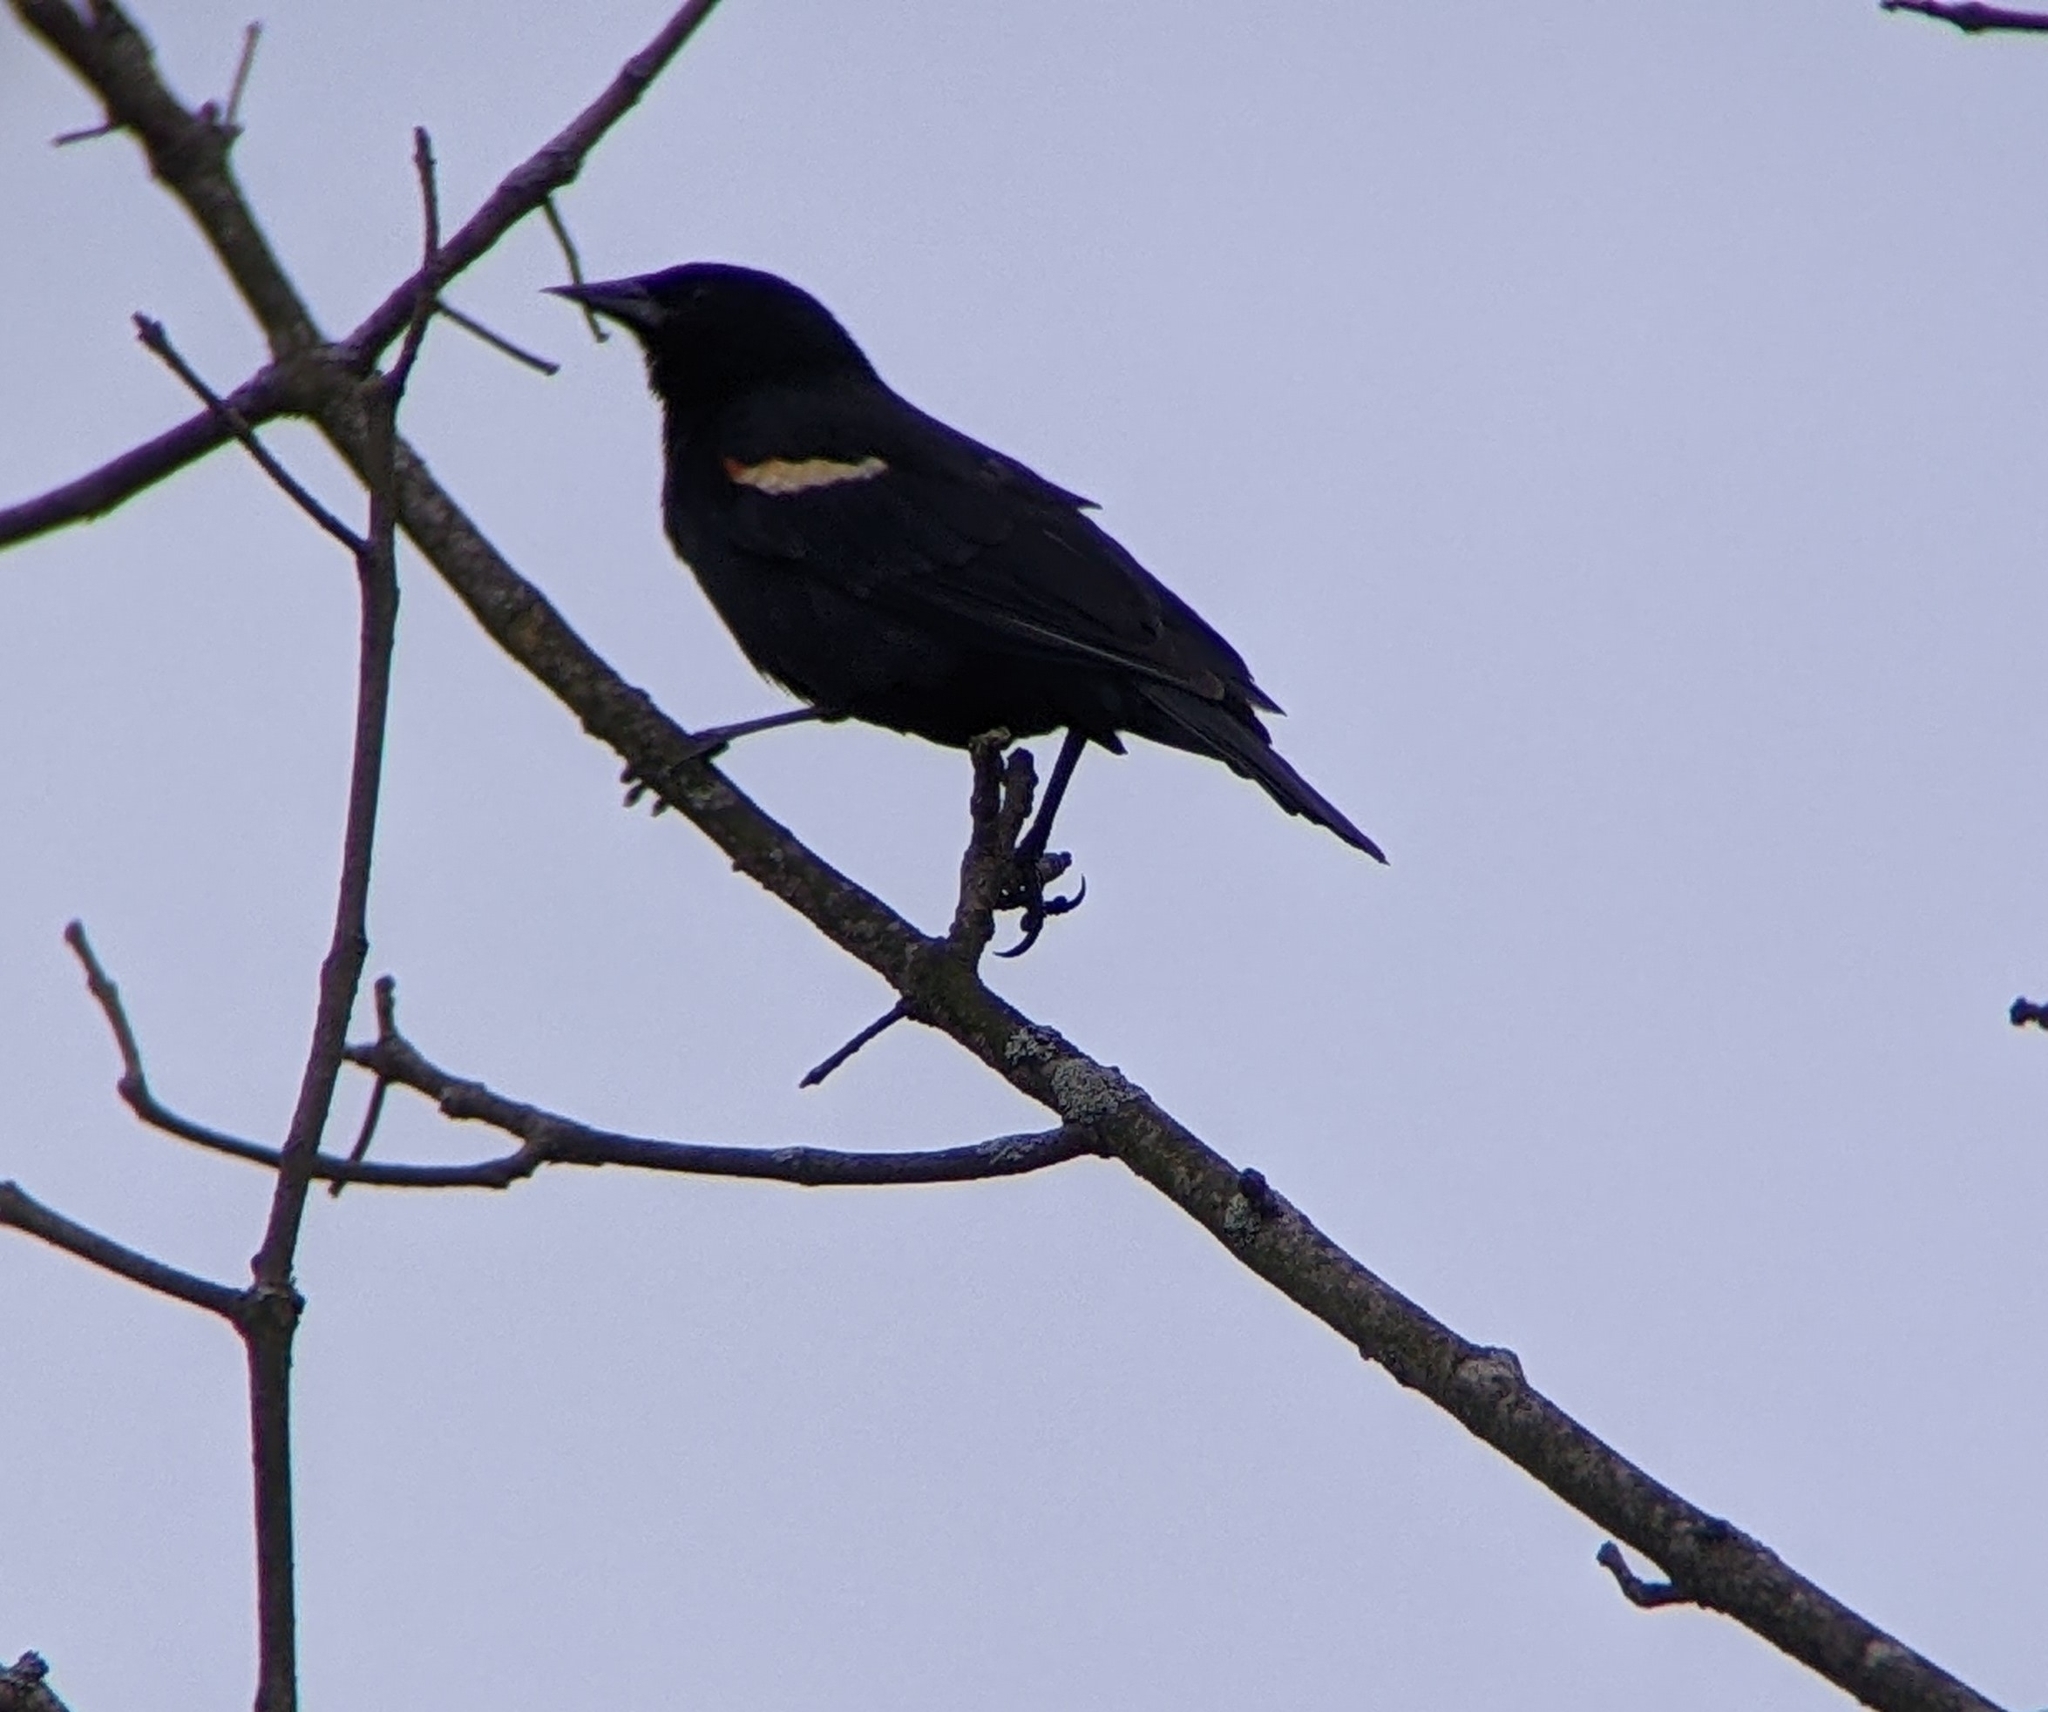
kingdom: Animalia
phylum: Chordata
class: Aves
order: Passeriformes
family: Icteridae
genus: Agelaius
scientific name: Agelaius phoeniceus
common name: Red-winged blackbird
